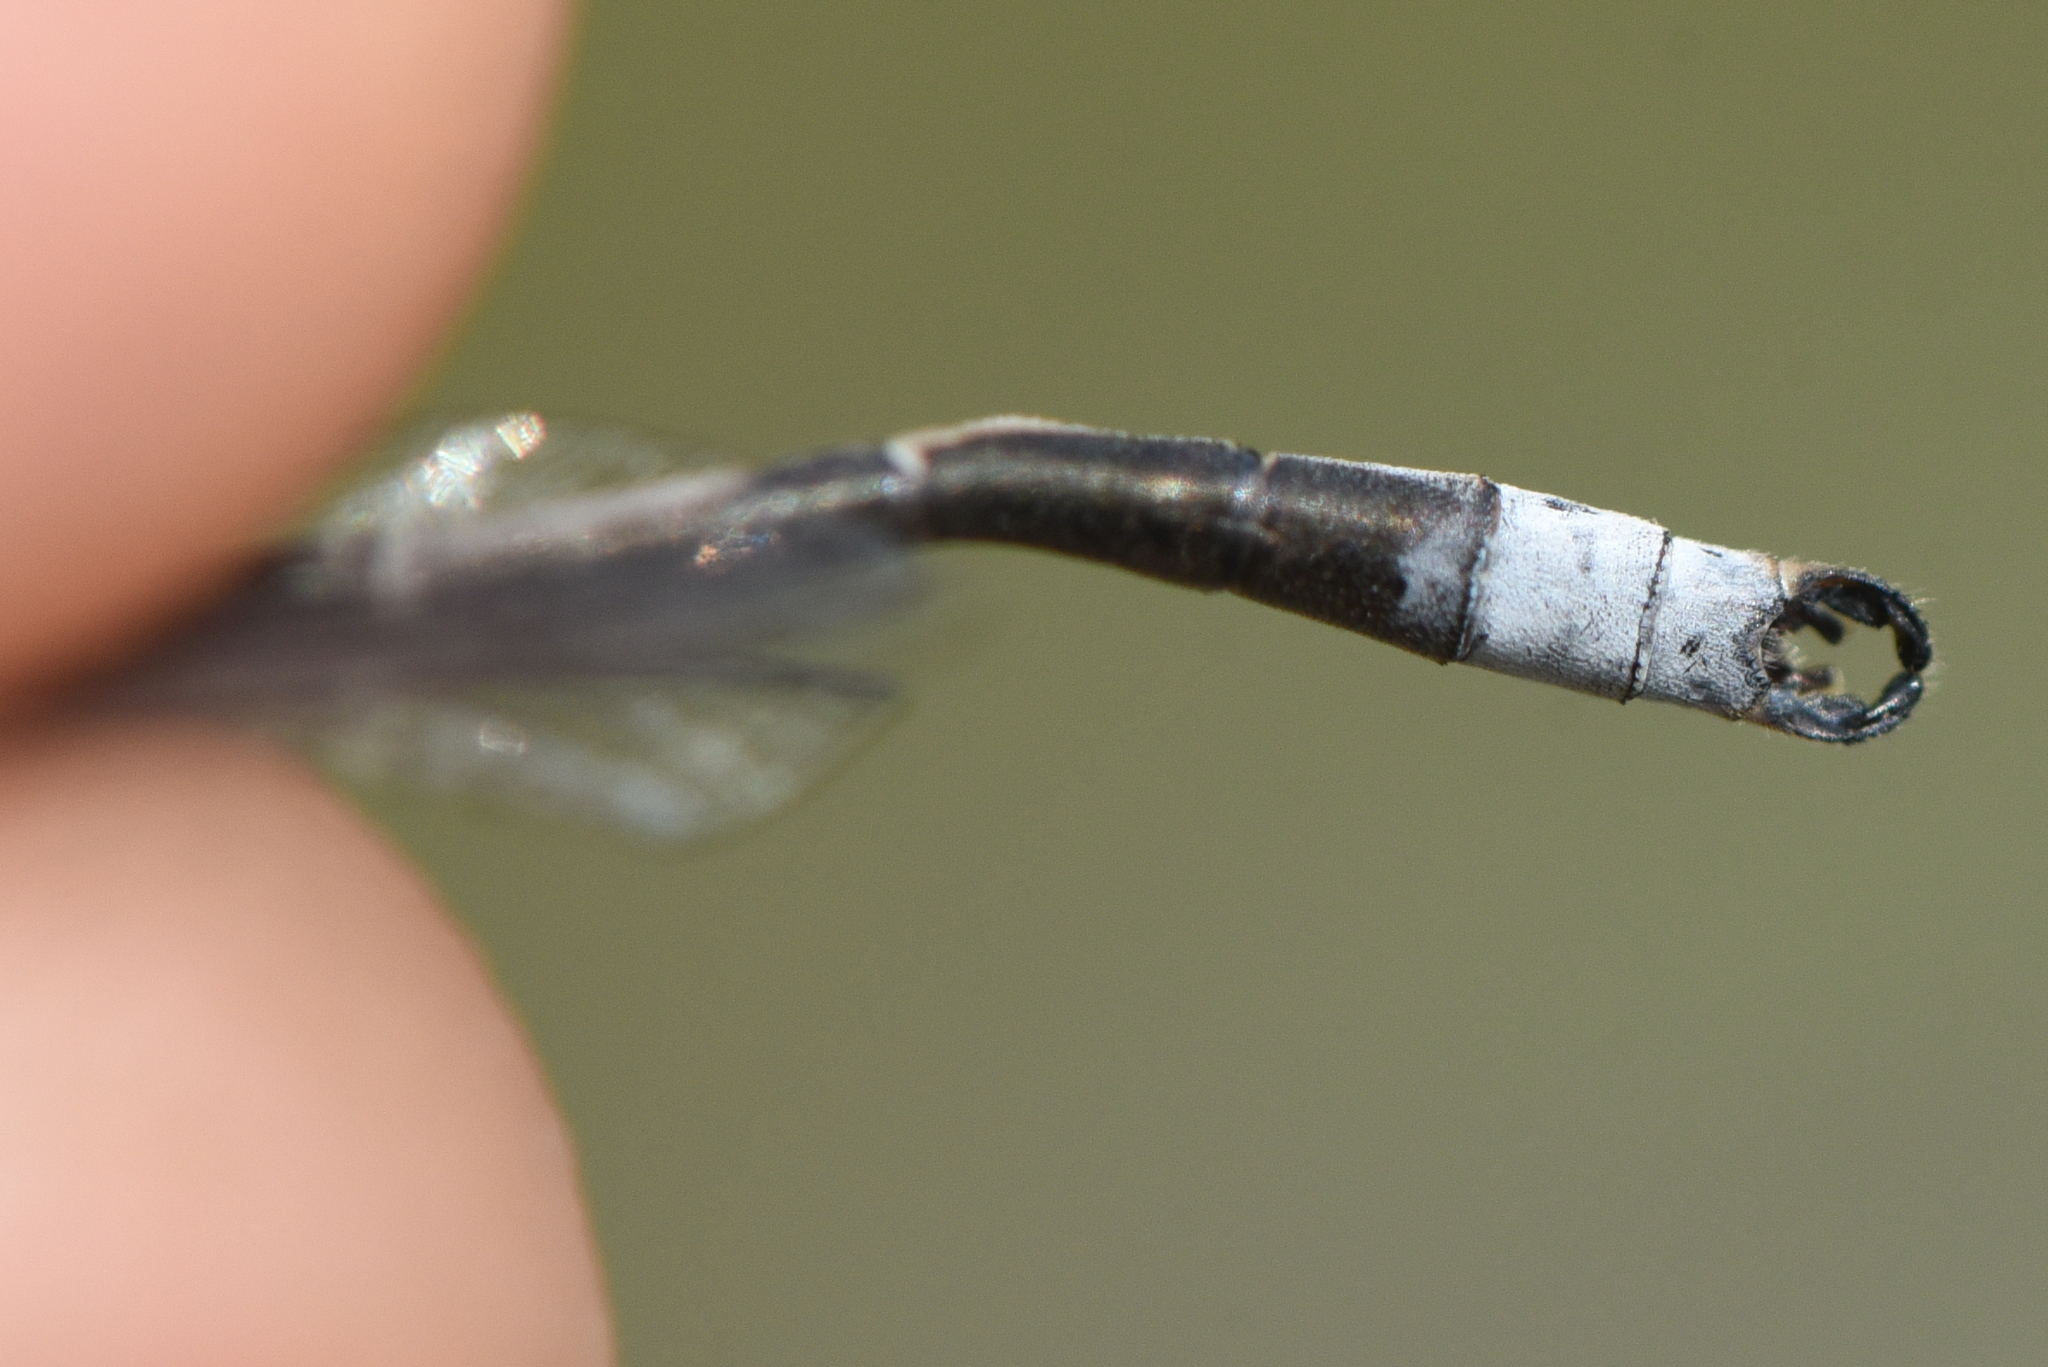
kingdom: Animalia
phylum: Arthropoda
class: Insecta
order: Odonata
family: Lestidae
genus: Lestes
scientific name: Lestes congener
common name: Spotted spreadwing
